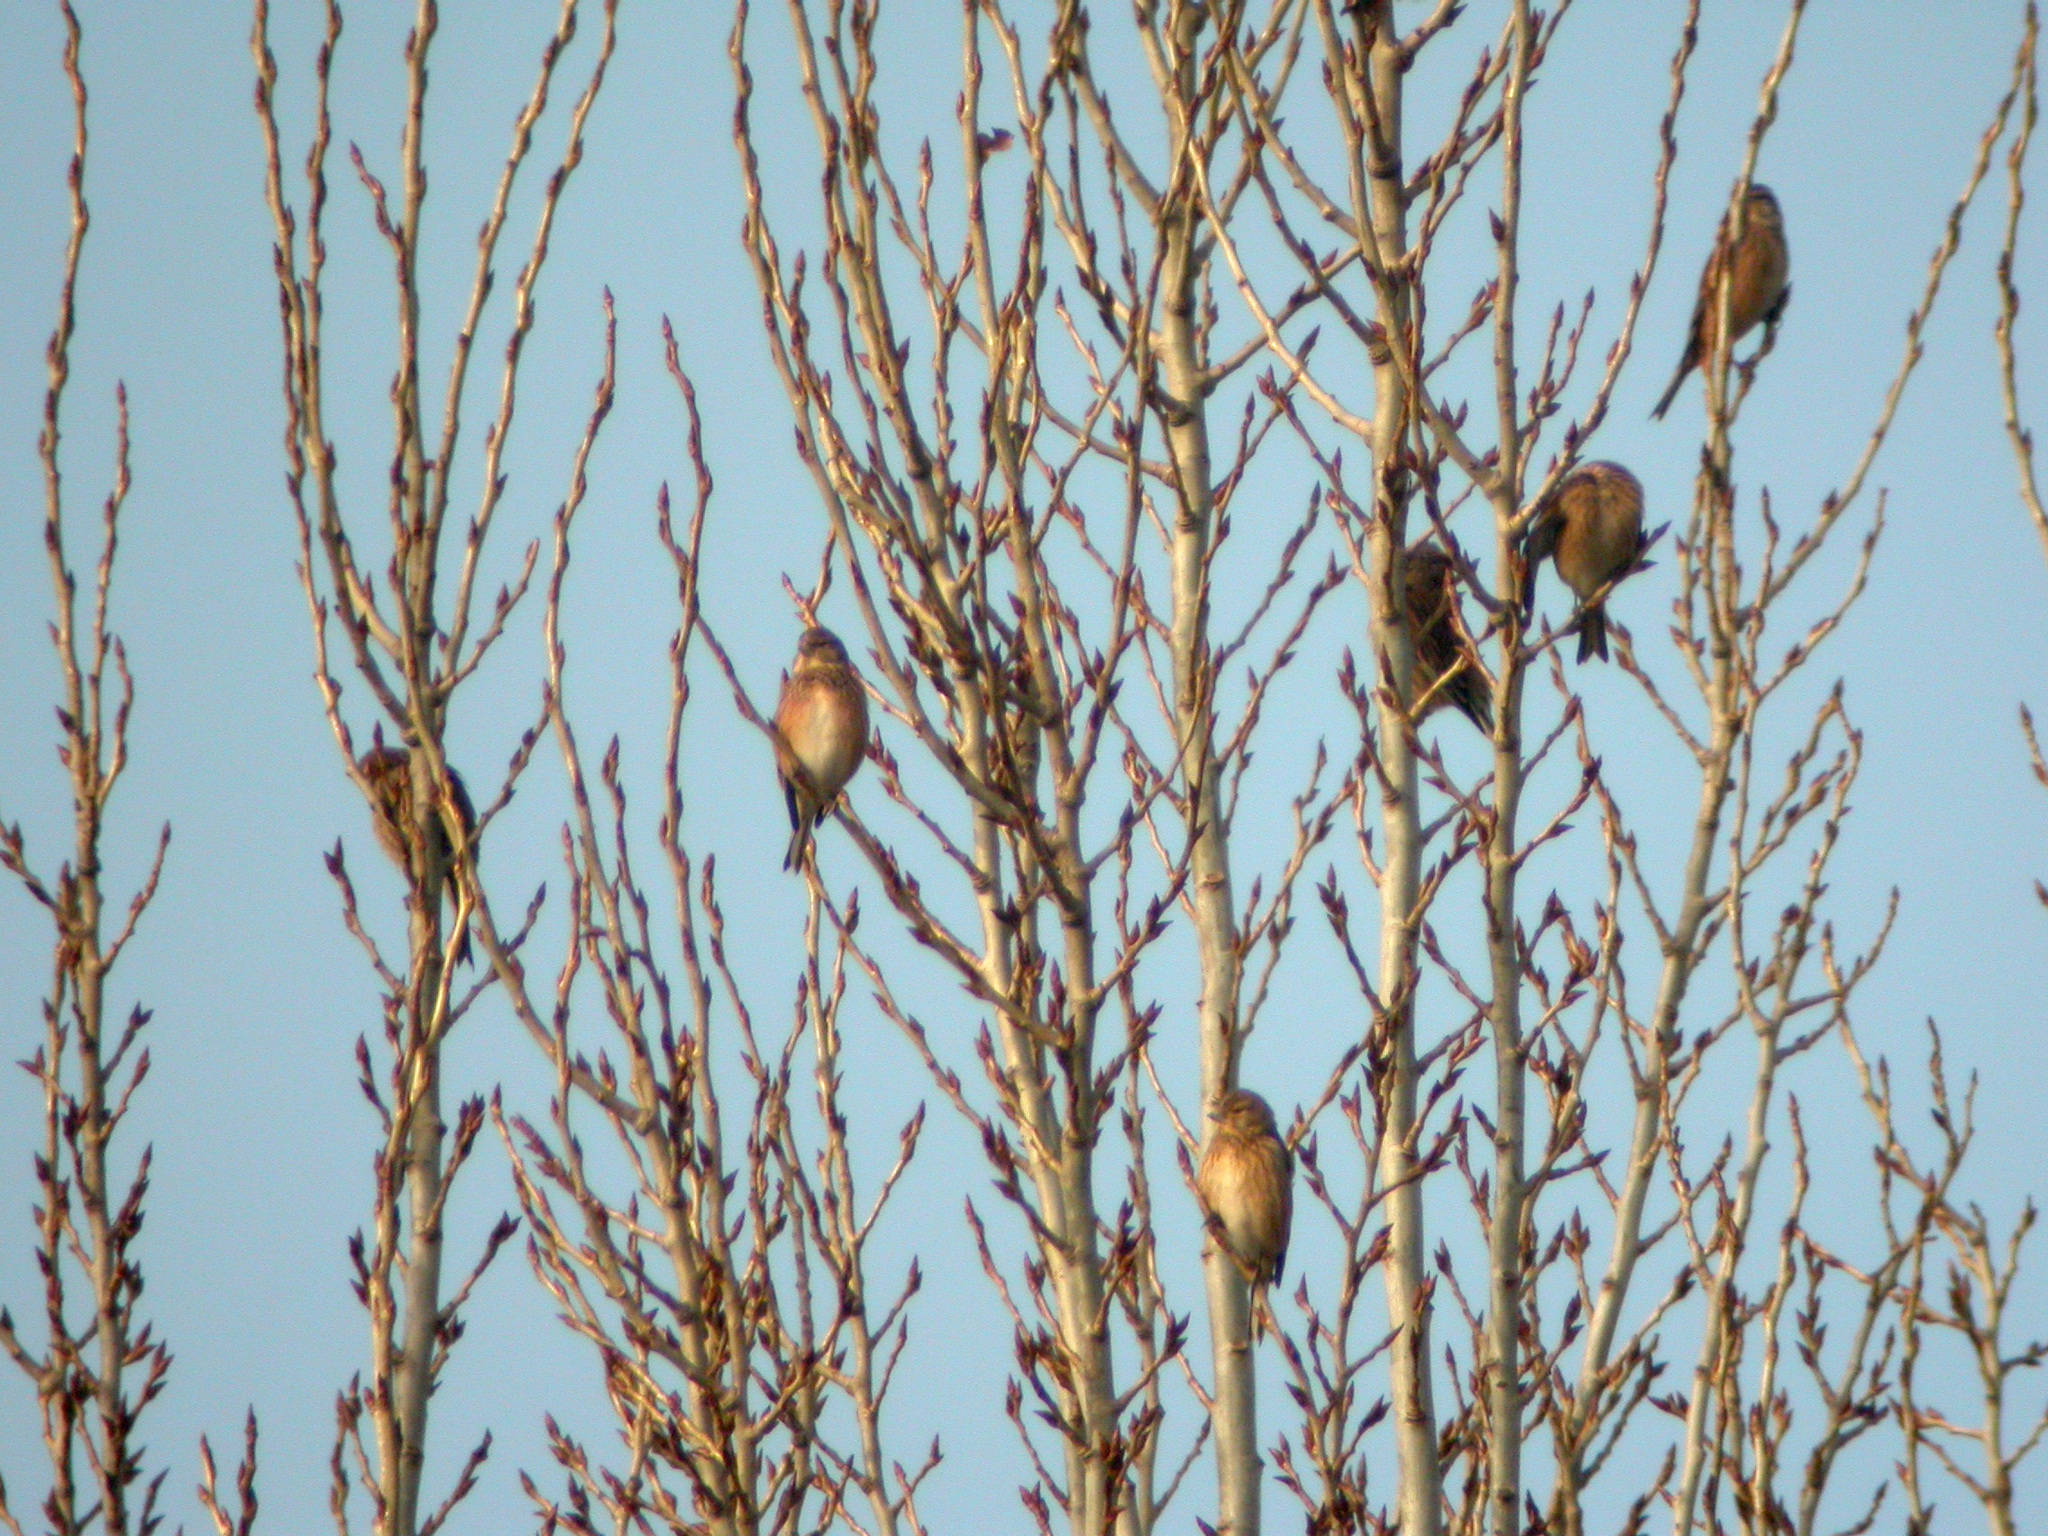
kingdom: Animalia
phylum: Chordata
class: Aves
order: Passeriformes
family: Fringillidae
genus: Linaria
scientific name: Linaria cannabina
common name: Common linnet
